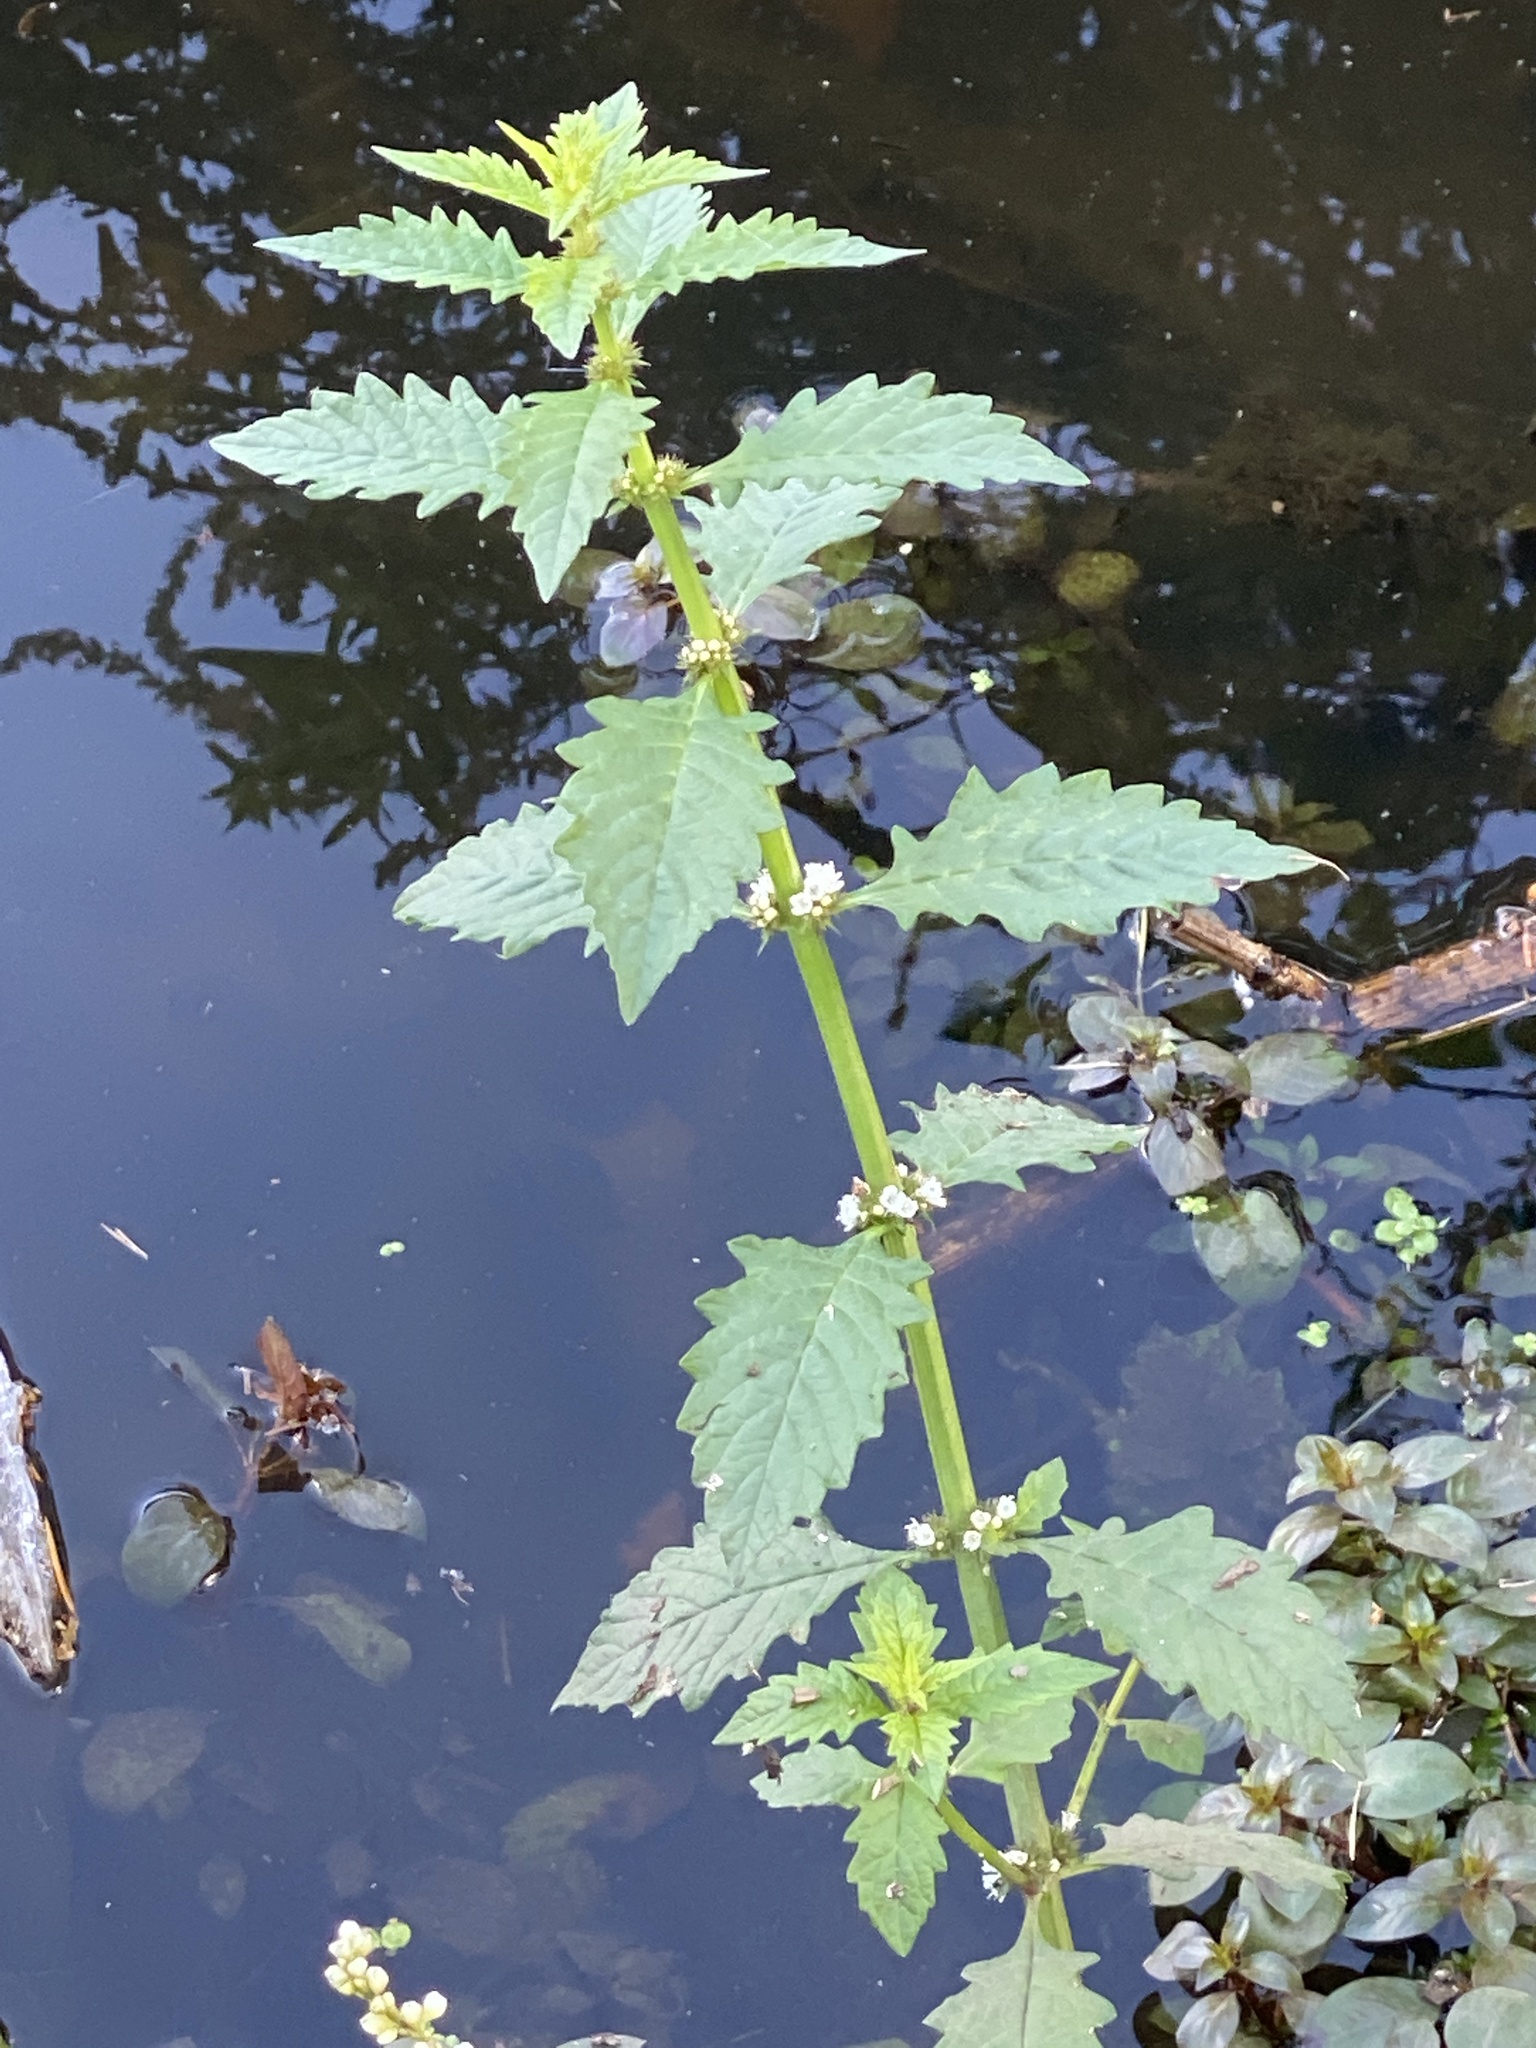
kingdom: Plantae
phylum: Tracheophyta
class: Magnoliopsida
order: Lamiales
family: Lamiaceae
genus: Lycopus
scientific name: Lycopus europaeus
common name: European bugleweed
